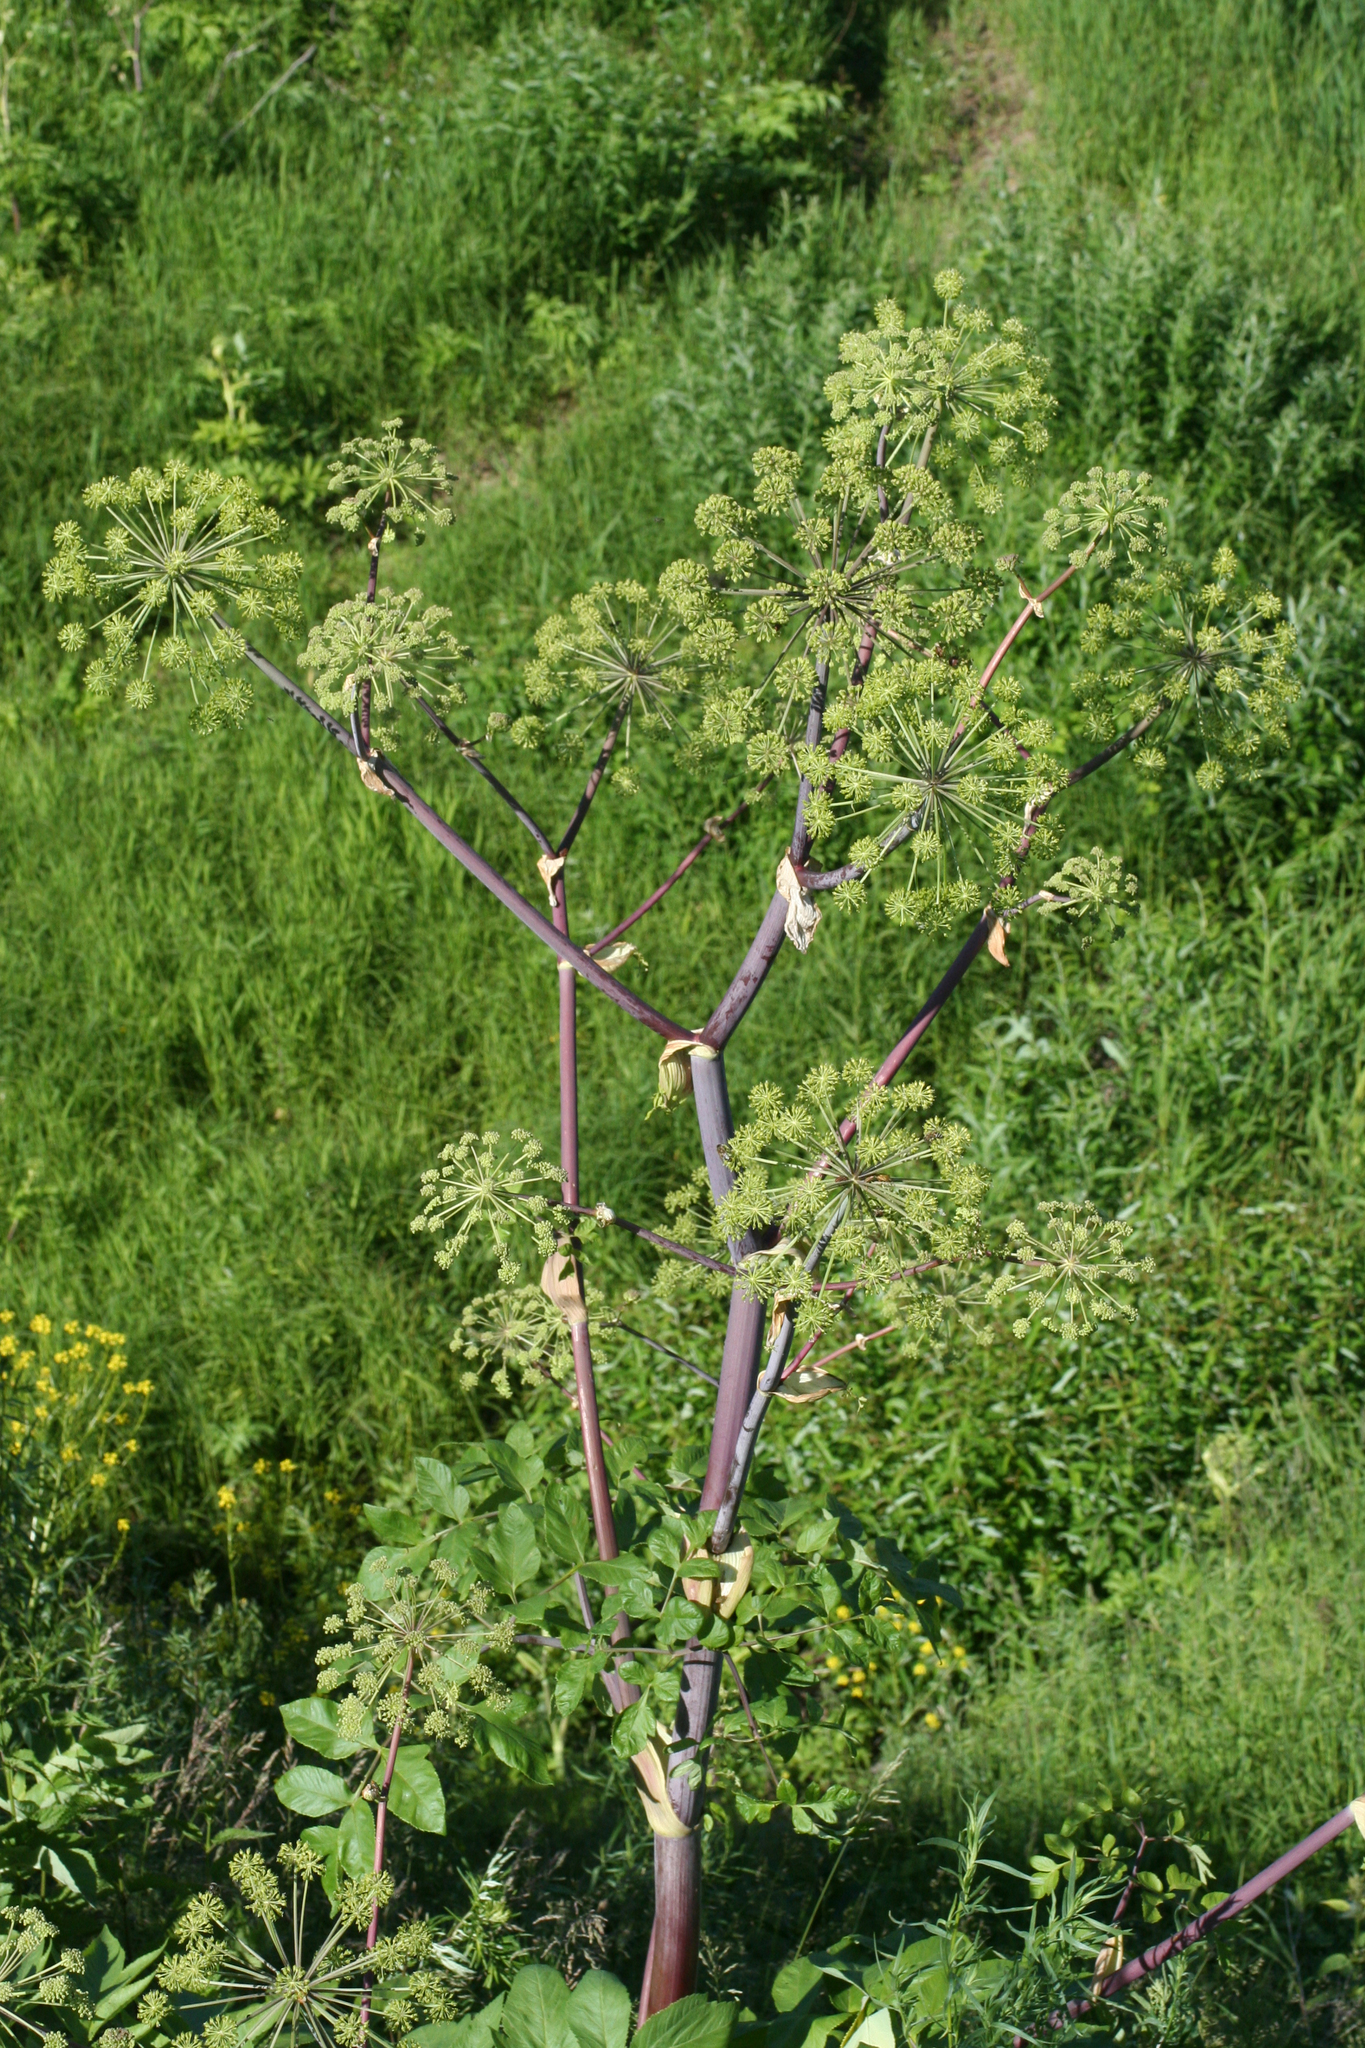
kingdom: Plantae
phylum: Tracheophyta
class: Magnoliopsida
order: Apiales
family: Apiaceae
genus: Angelica
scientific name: Angelica decurrens
